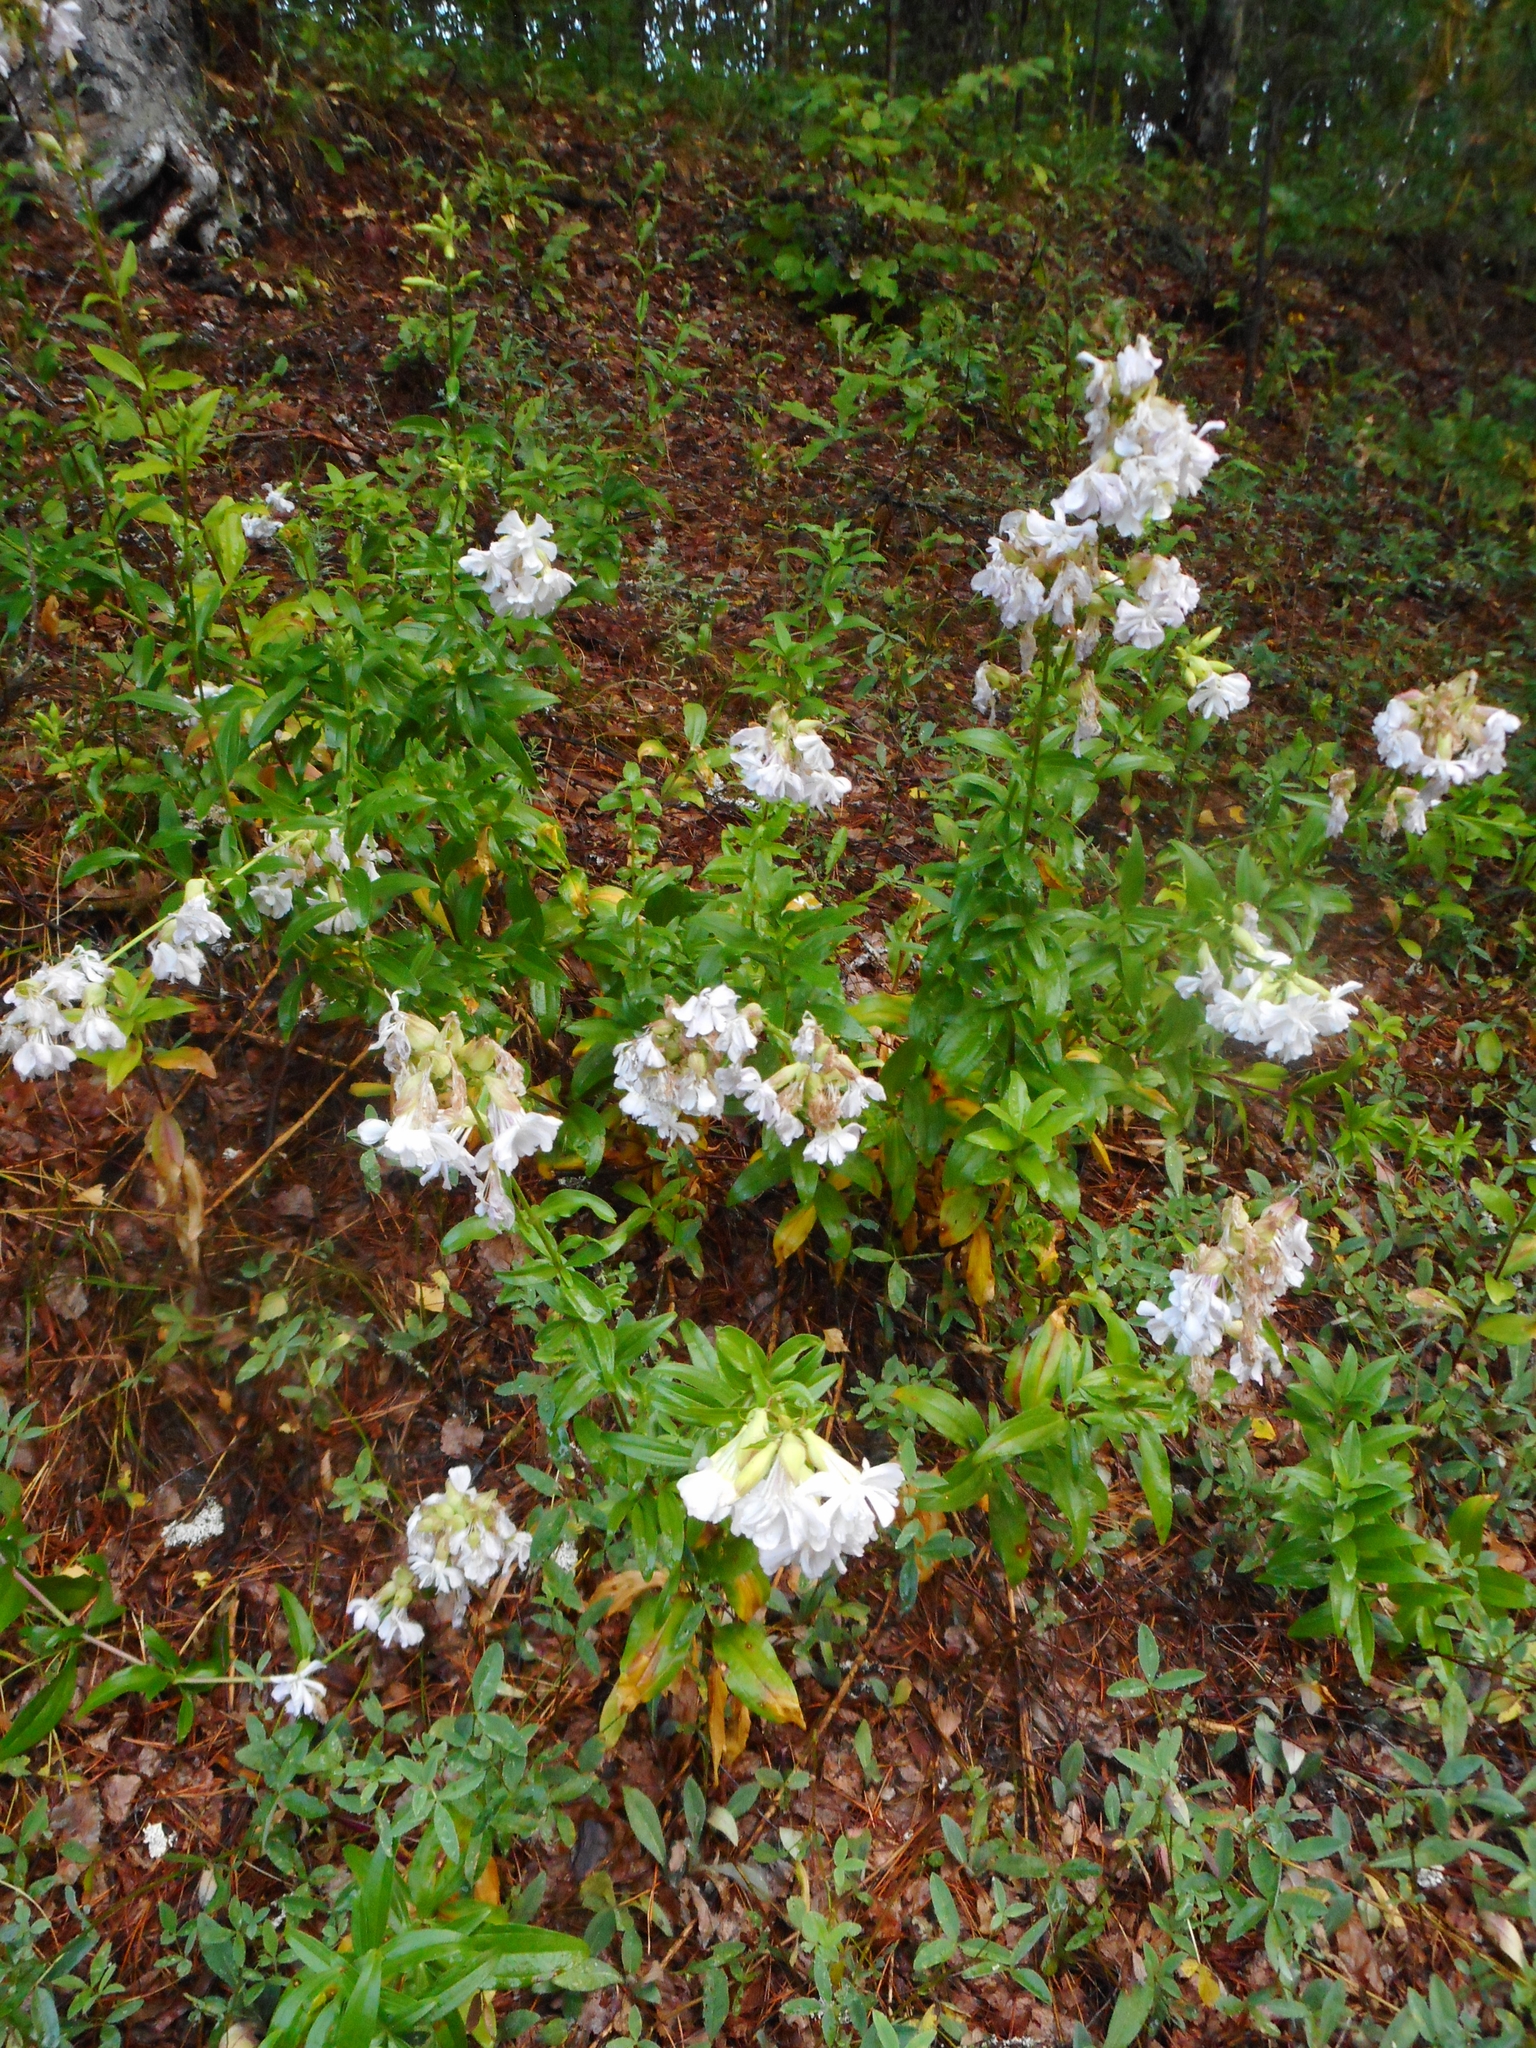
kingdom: Plantae
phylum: Tracheophyta
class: Magnoliopsida
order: Caryophyllales
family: Caryophyllaceae
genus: Saponaria
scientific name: Saponaria officinalis
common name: Soapwort
